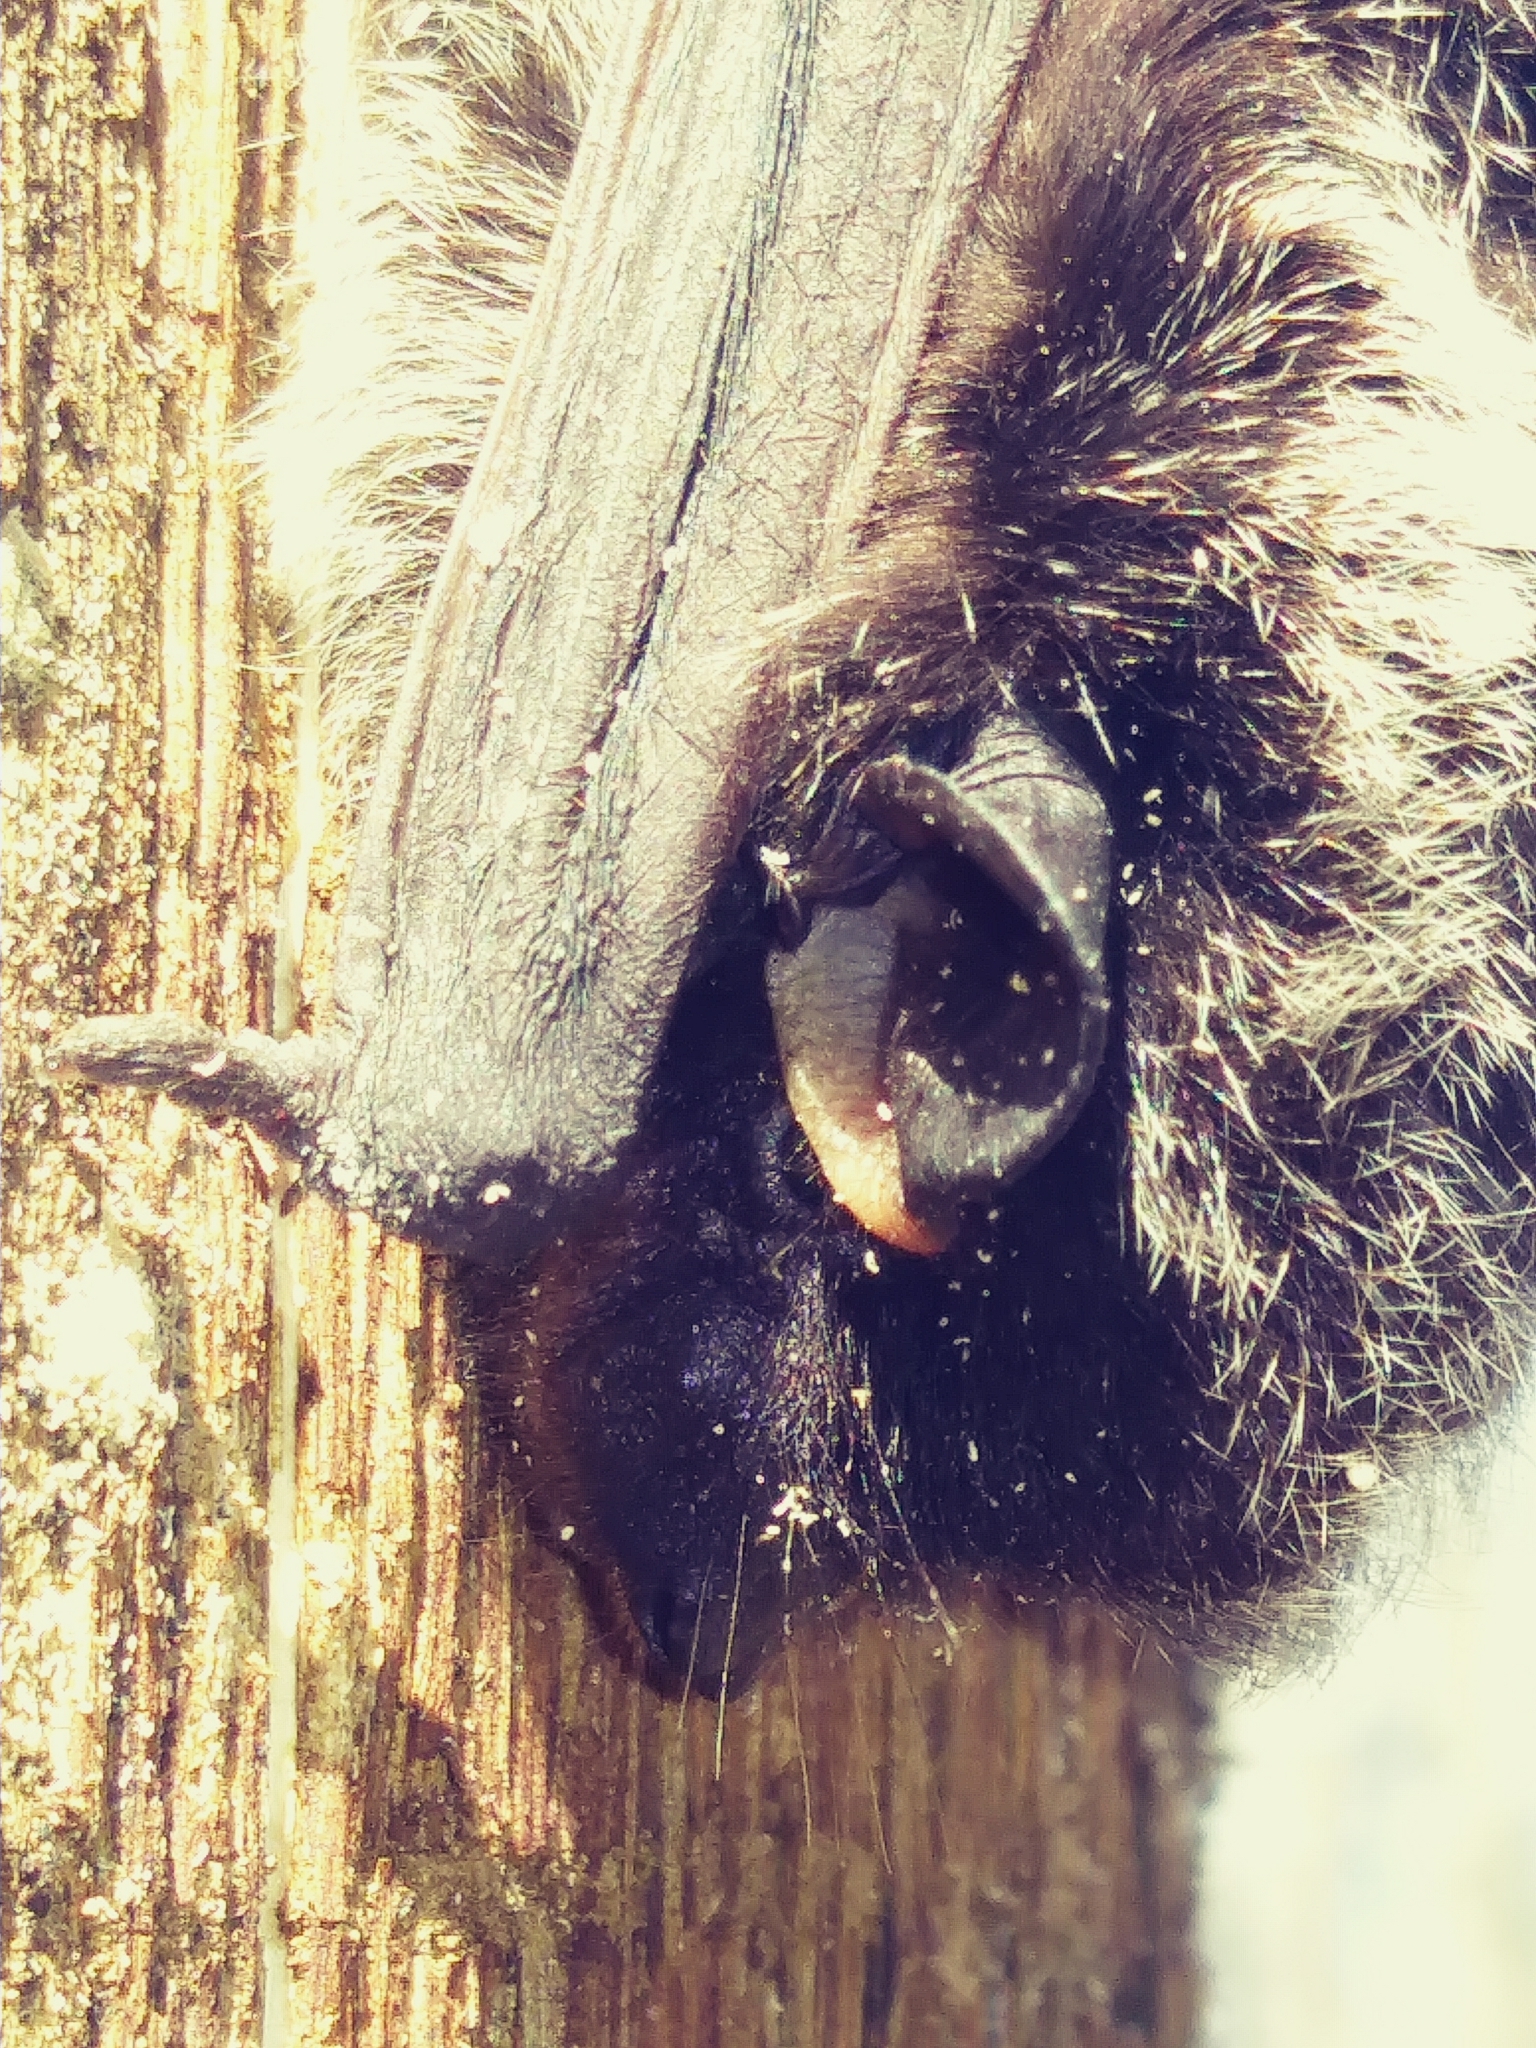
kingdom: Animalia
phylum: Chordata
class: Mammalia
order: Chiroptera
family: Vespertilionidae
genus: Lasionycteris
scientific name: Lasionycteris noctivagans
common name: Silver-haired bat
